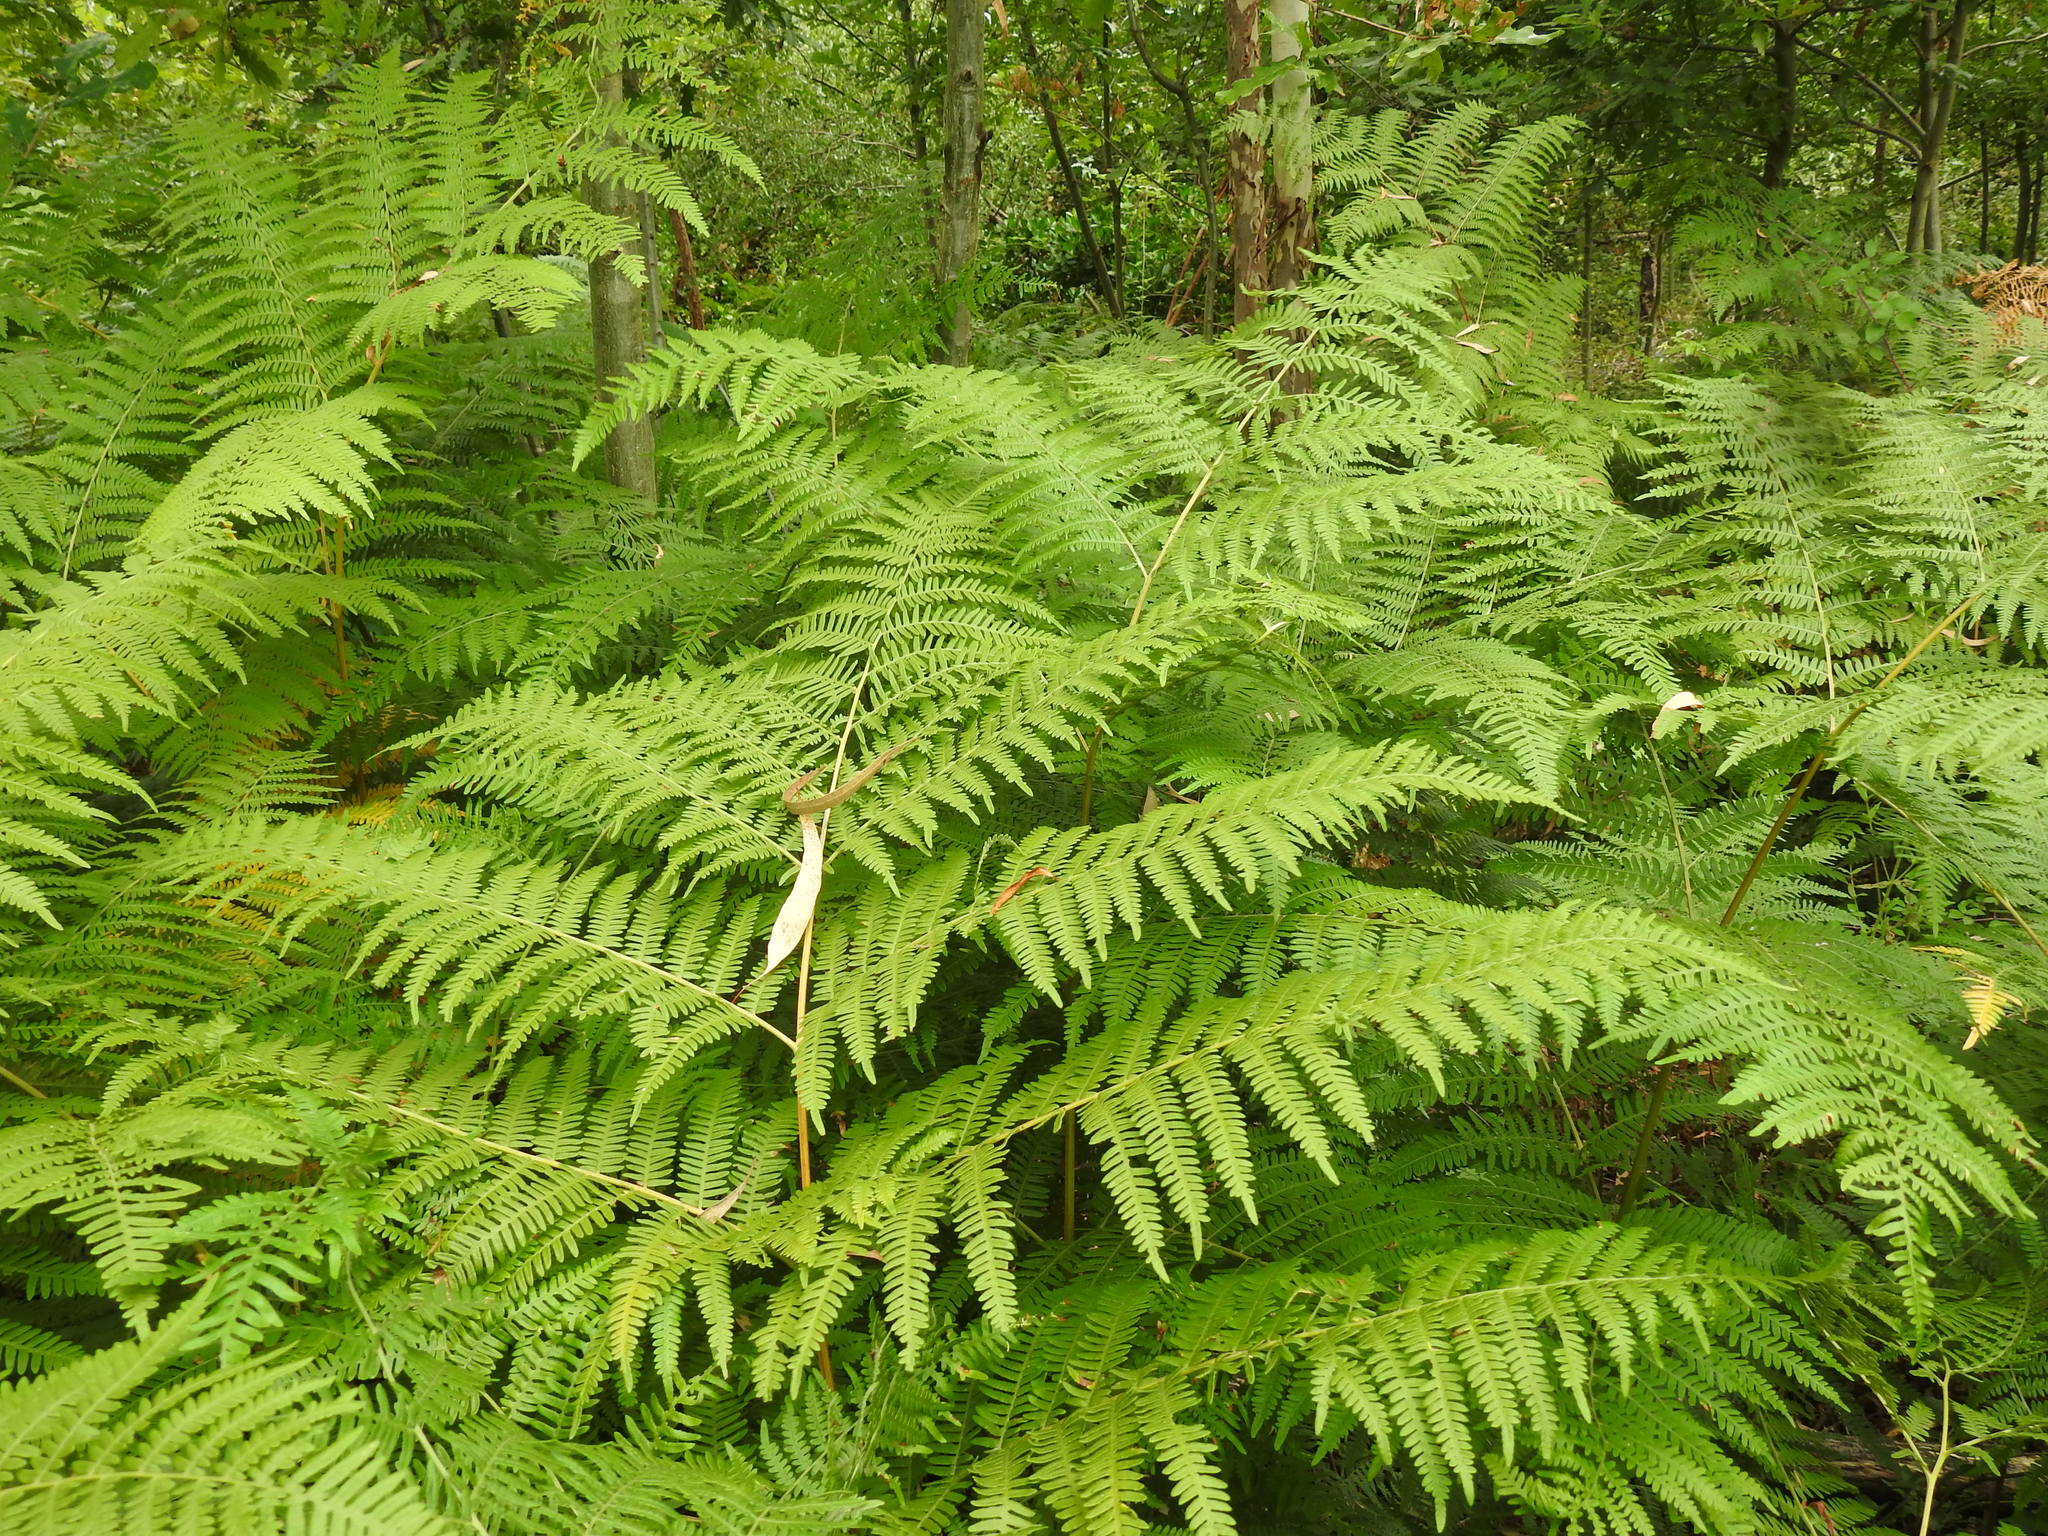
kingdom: Plantae
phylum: Tracheophyta
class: Polypodiopsida
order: Polypodiales
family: Dennstaedtiaceae
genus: Pteridium
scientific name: Pteridium aquilinum
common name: Bracken
